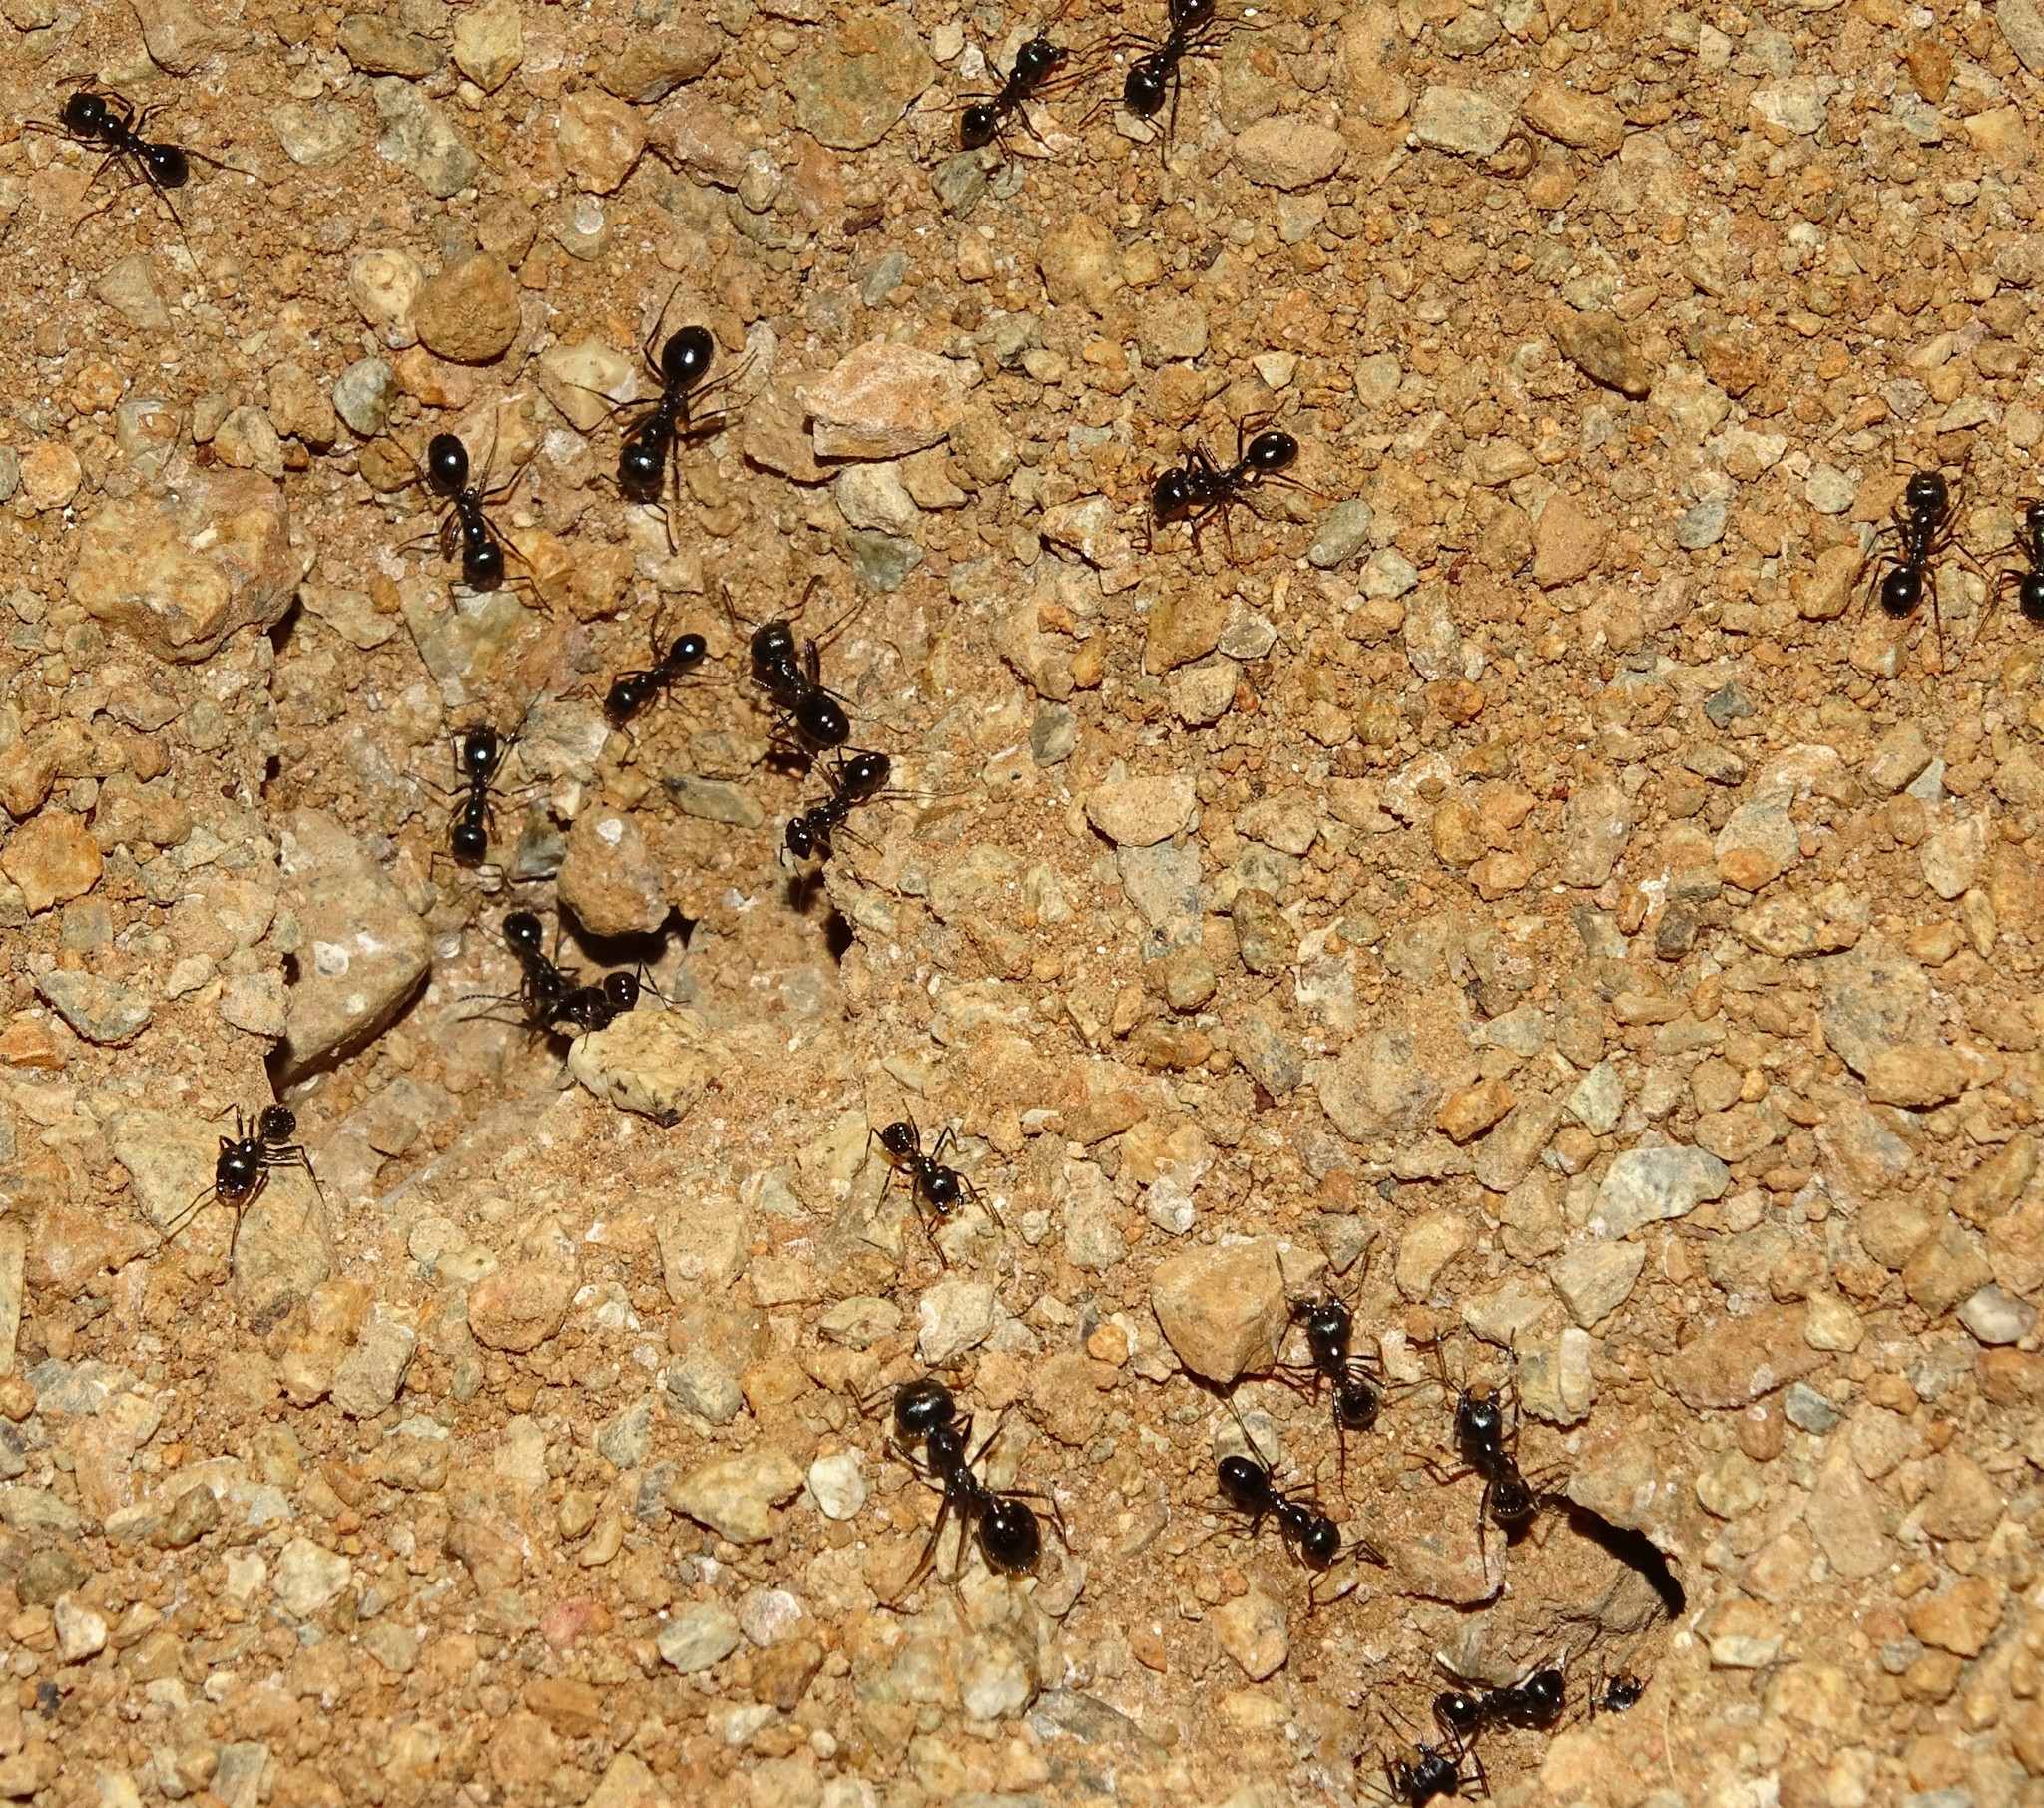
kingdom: Animalia
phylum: Arthropoda
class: Insecta
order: Hymenoptera
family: Formicidae
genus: Messor
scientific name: Messor pergandei
